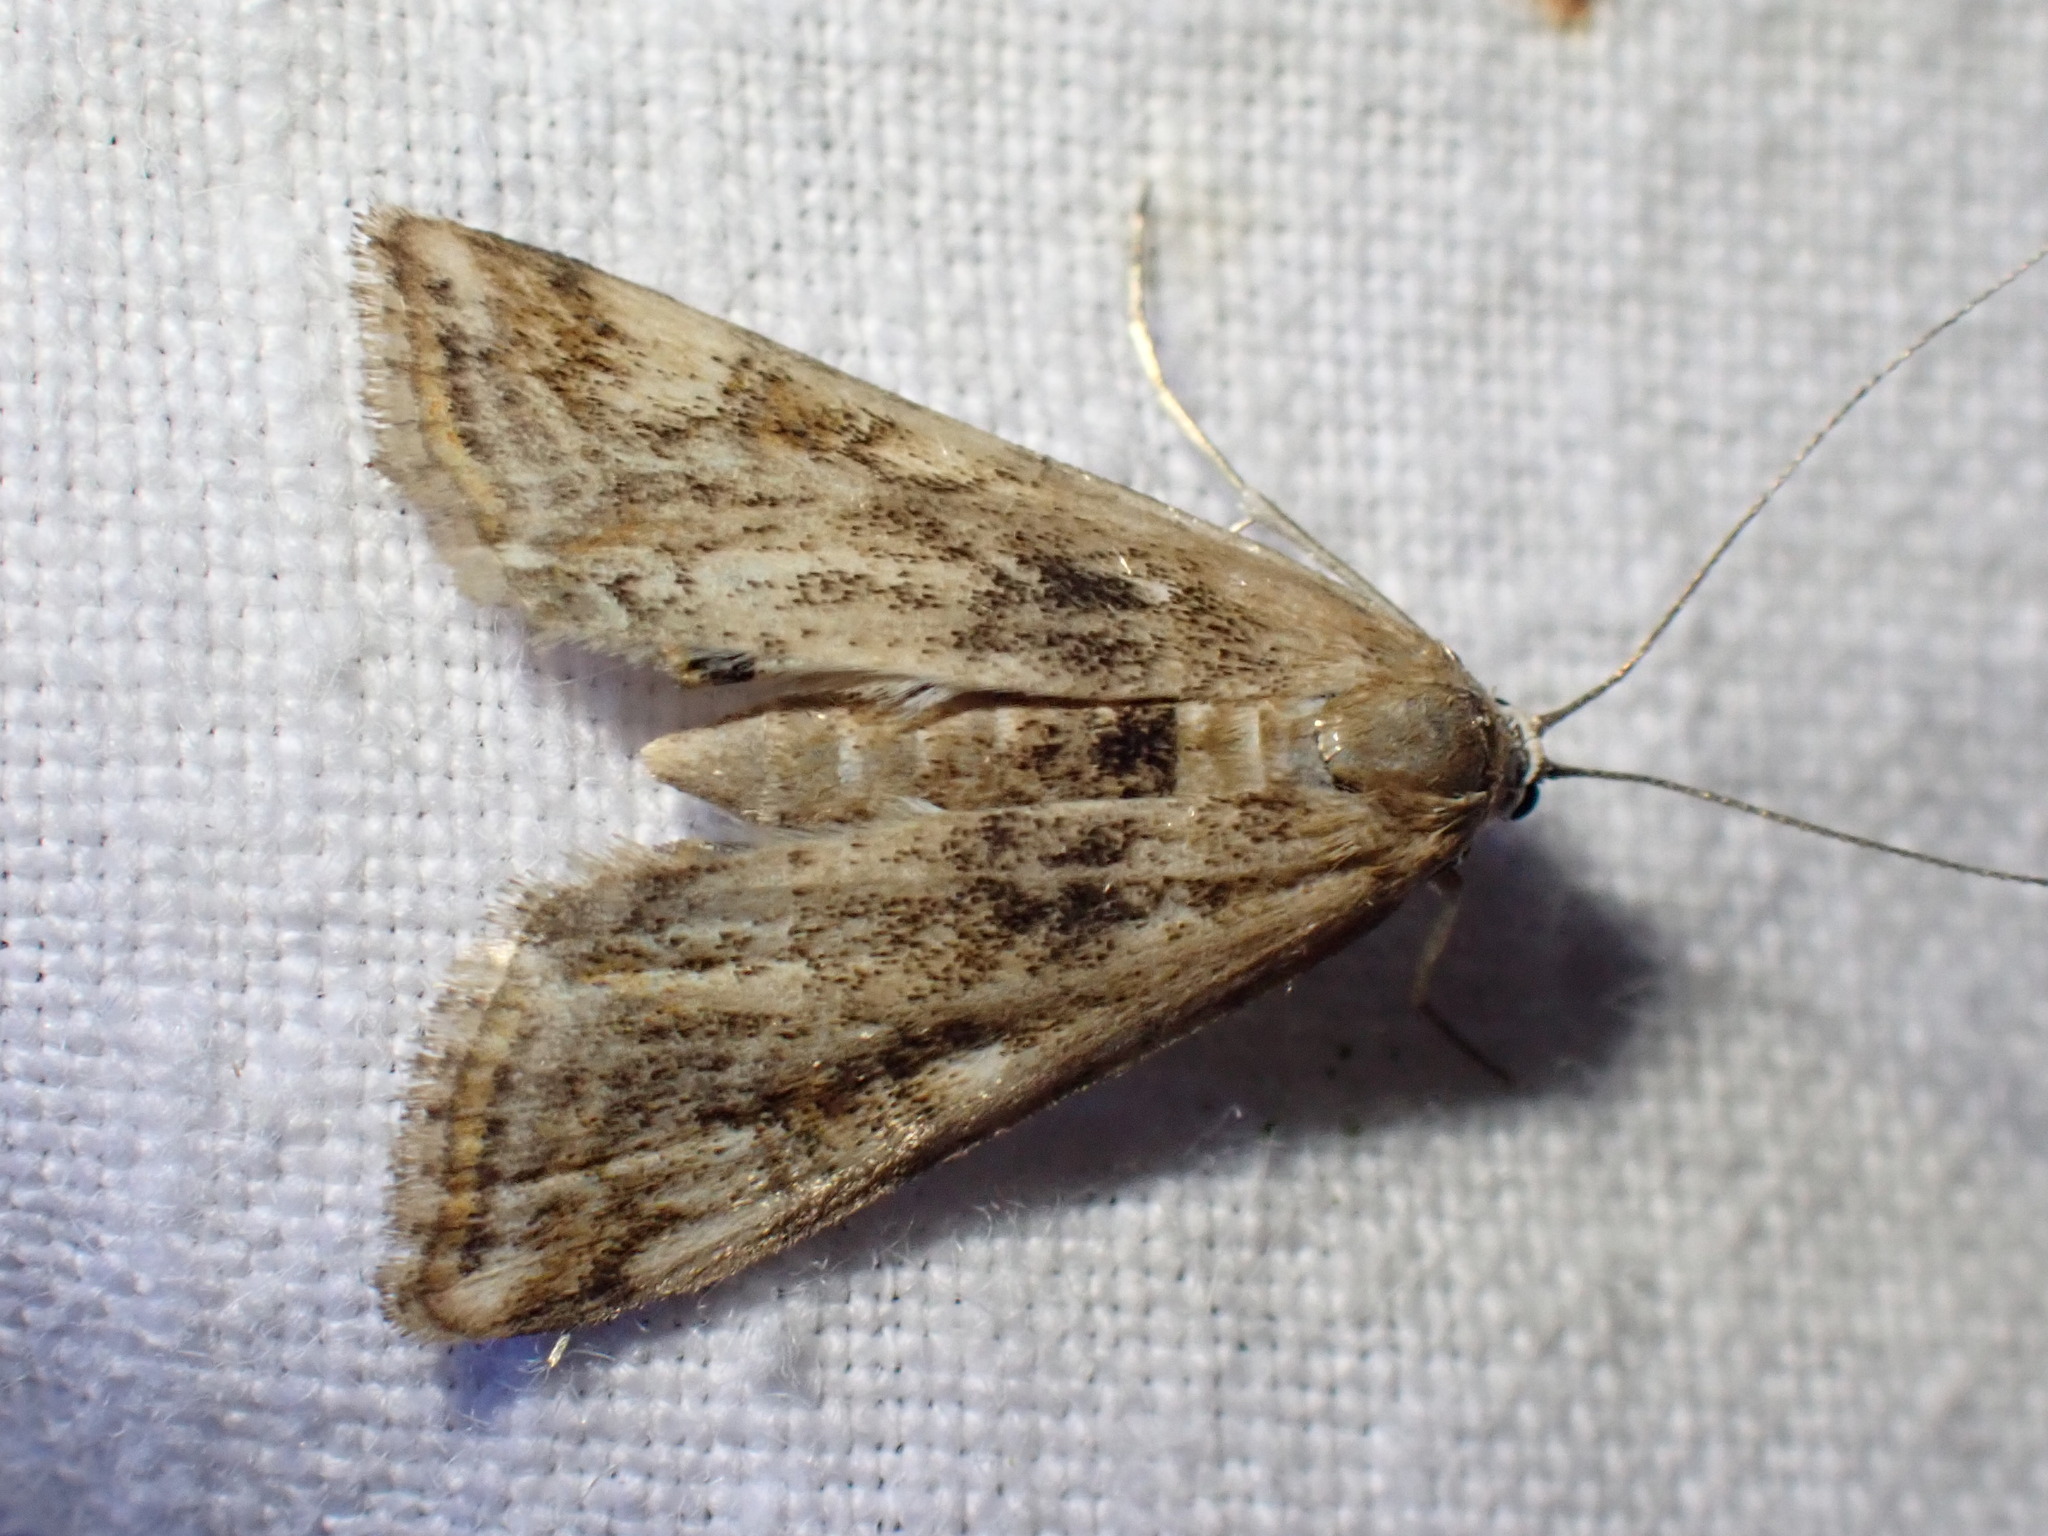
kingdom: Animalia
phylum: Arthropoda
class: Insecta
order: Lepidoptera
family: Crambidae
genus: Cataclysta
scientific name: Cataclysta lemnata
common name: Small china-mark
